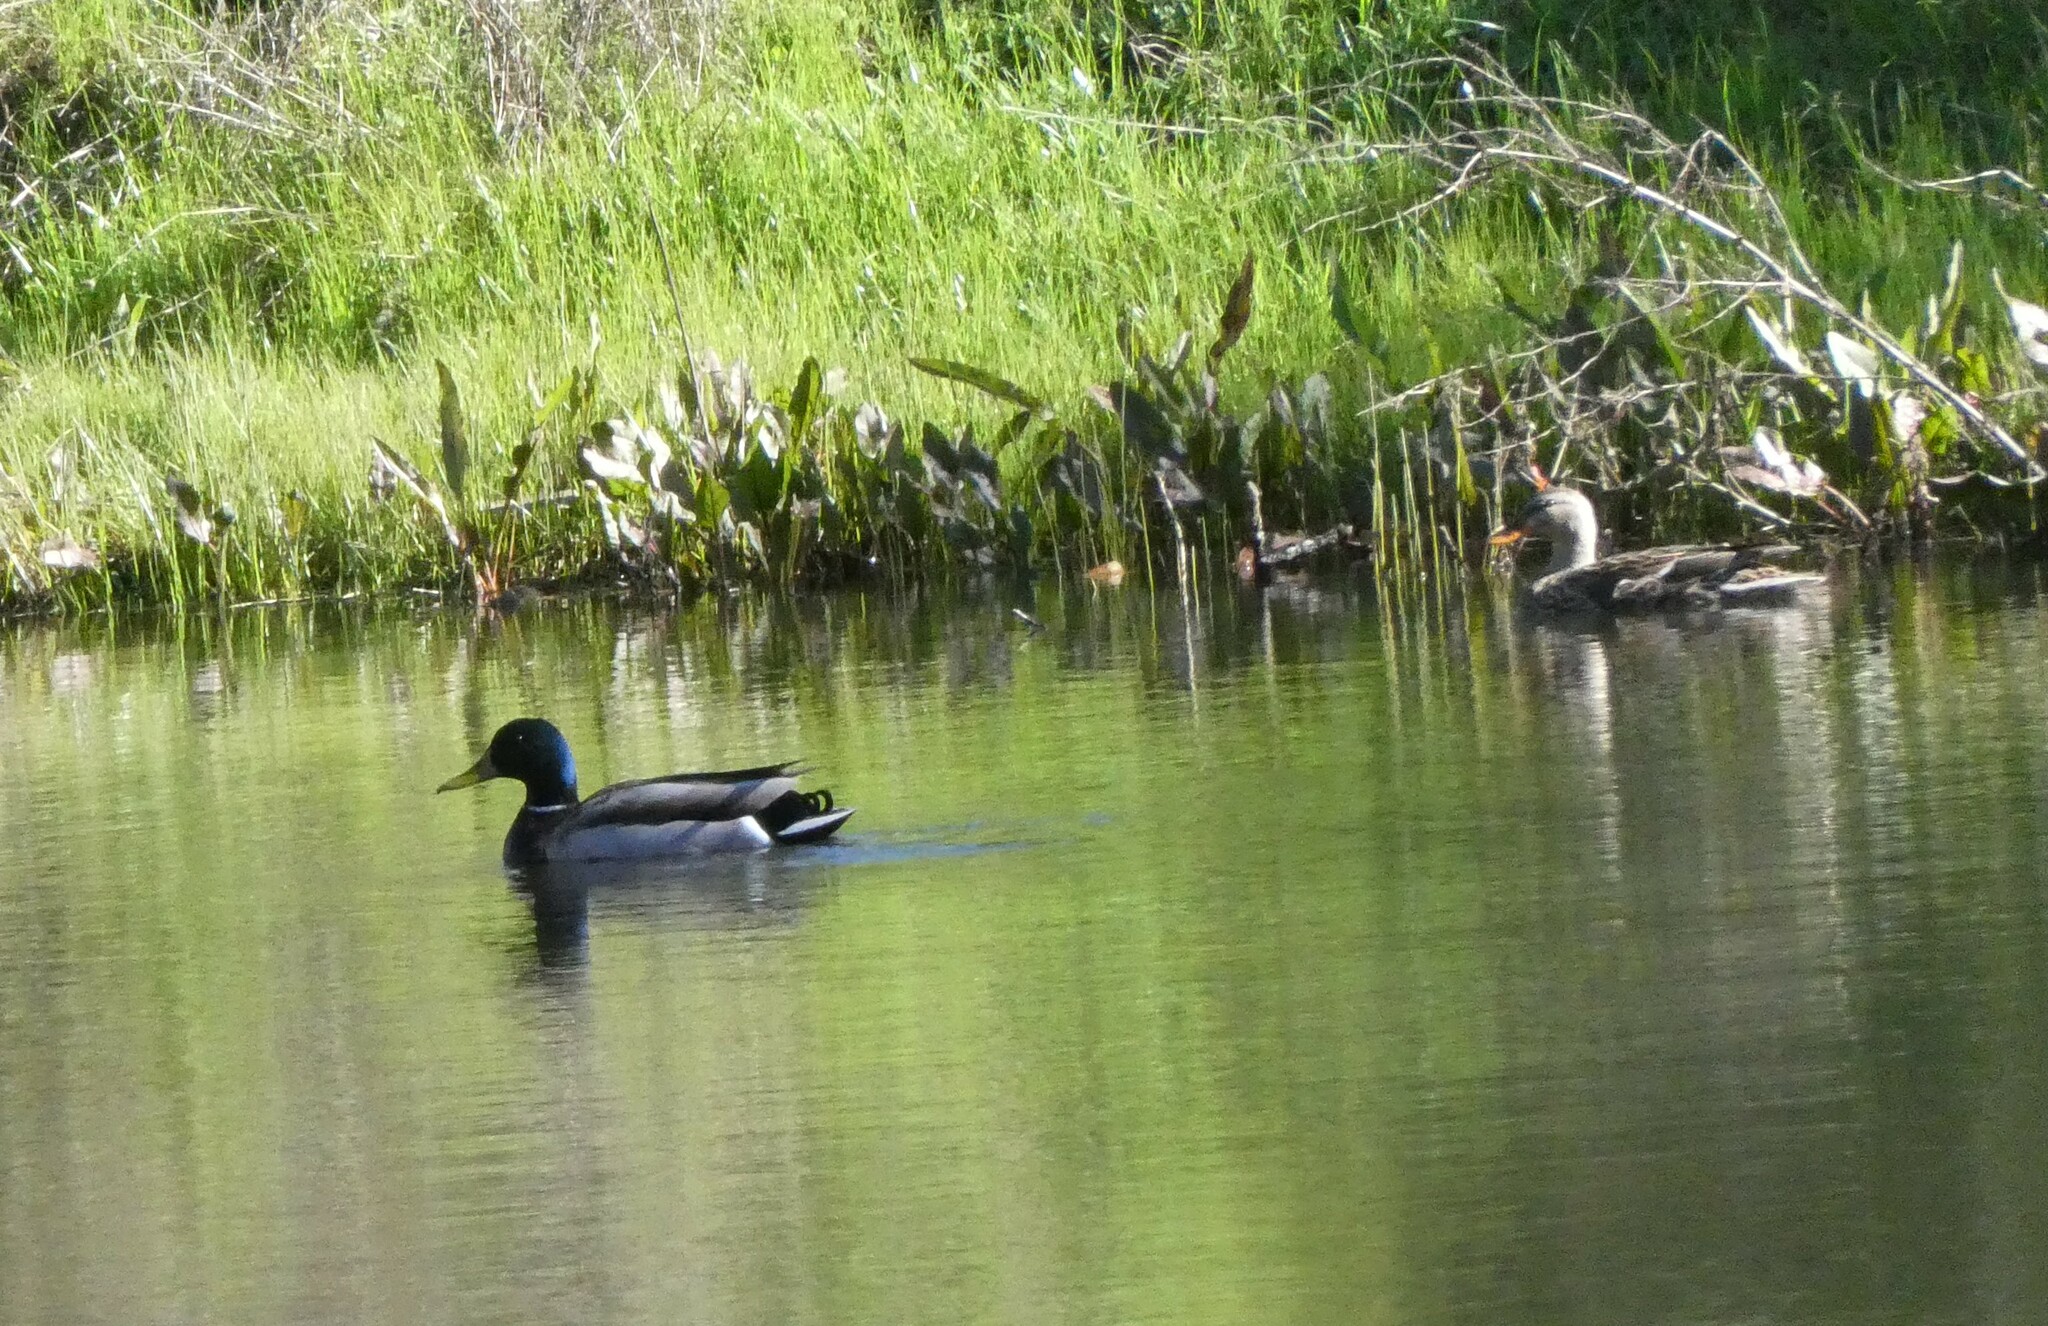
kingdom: Animalia
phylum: Chordata
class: Aves
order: Anseriformes
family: Anatidae
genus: Anas
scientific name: Anas platyrhynchos
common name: Mallard
